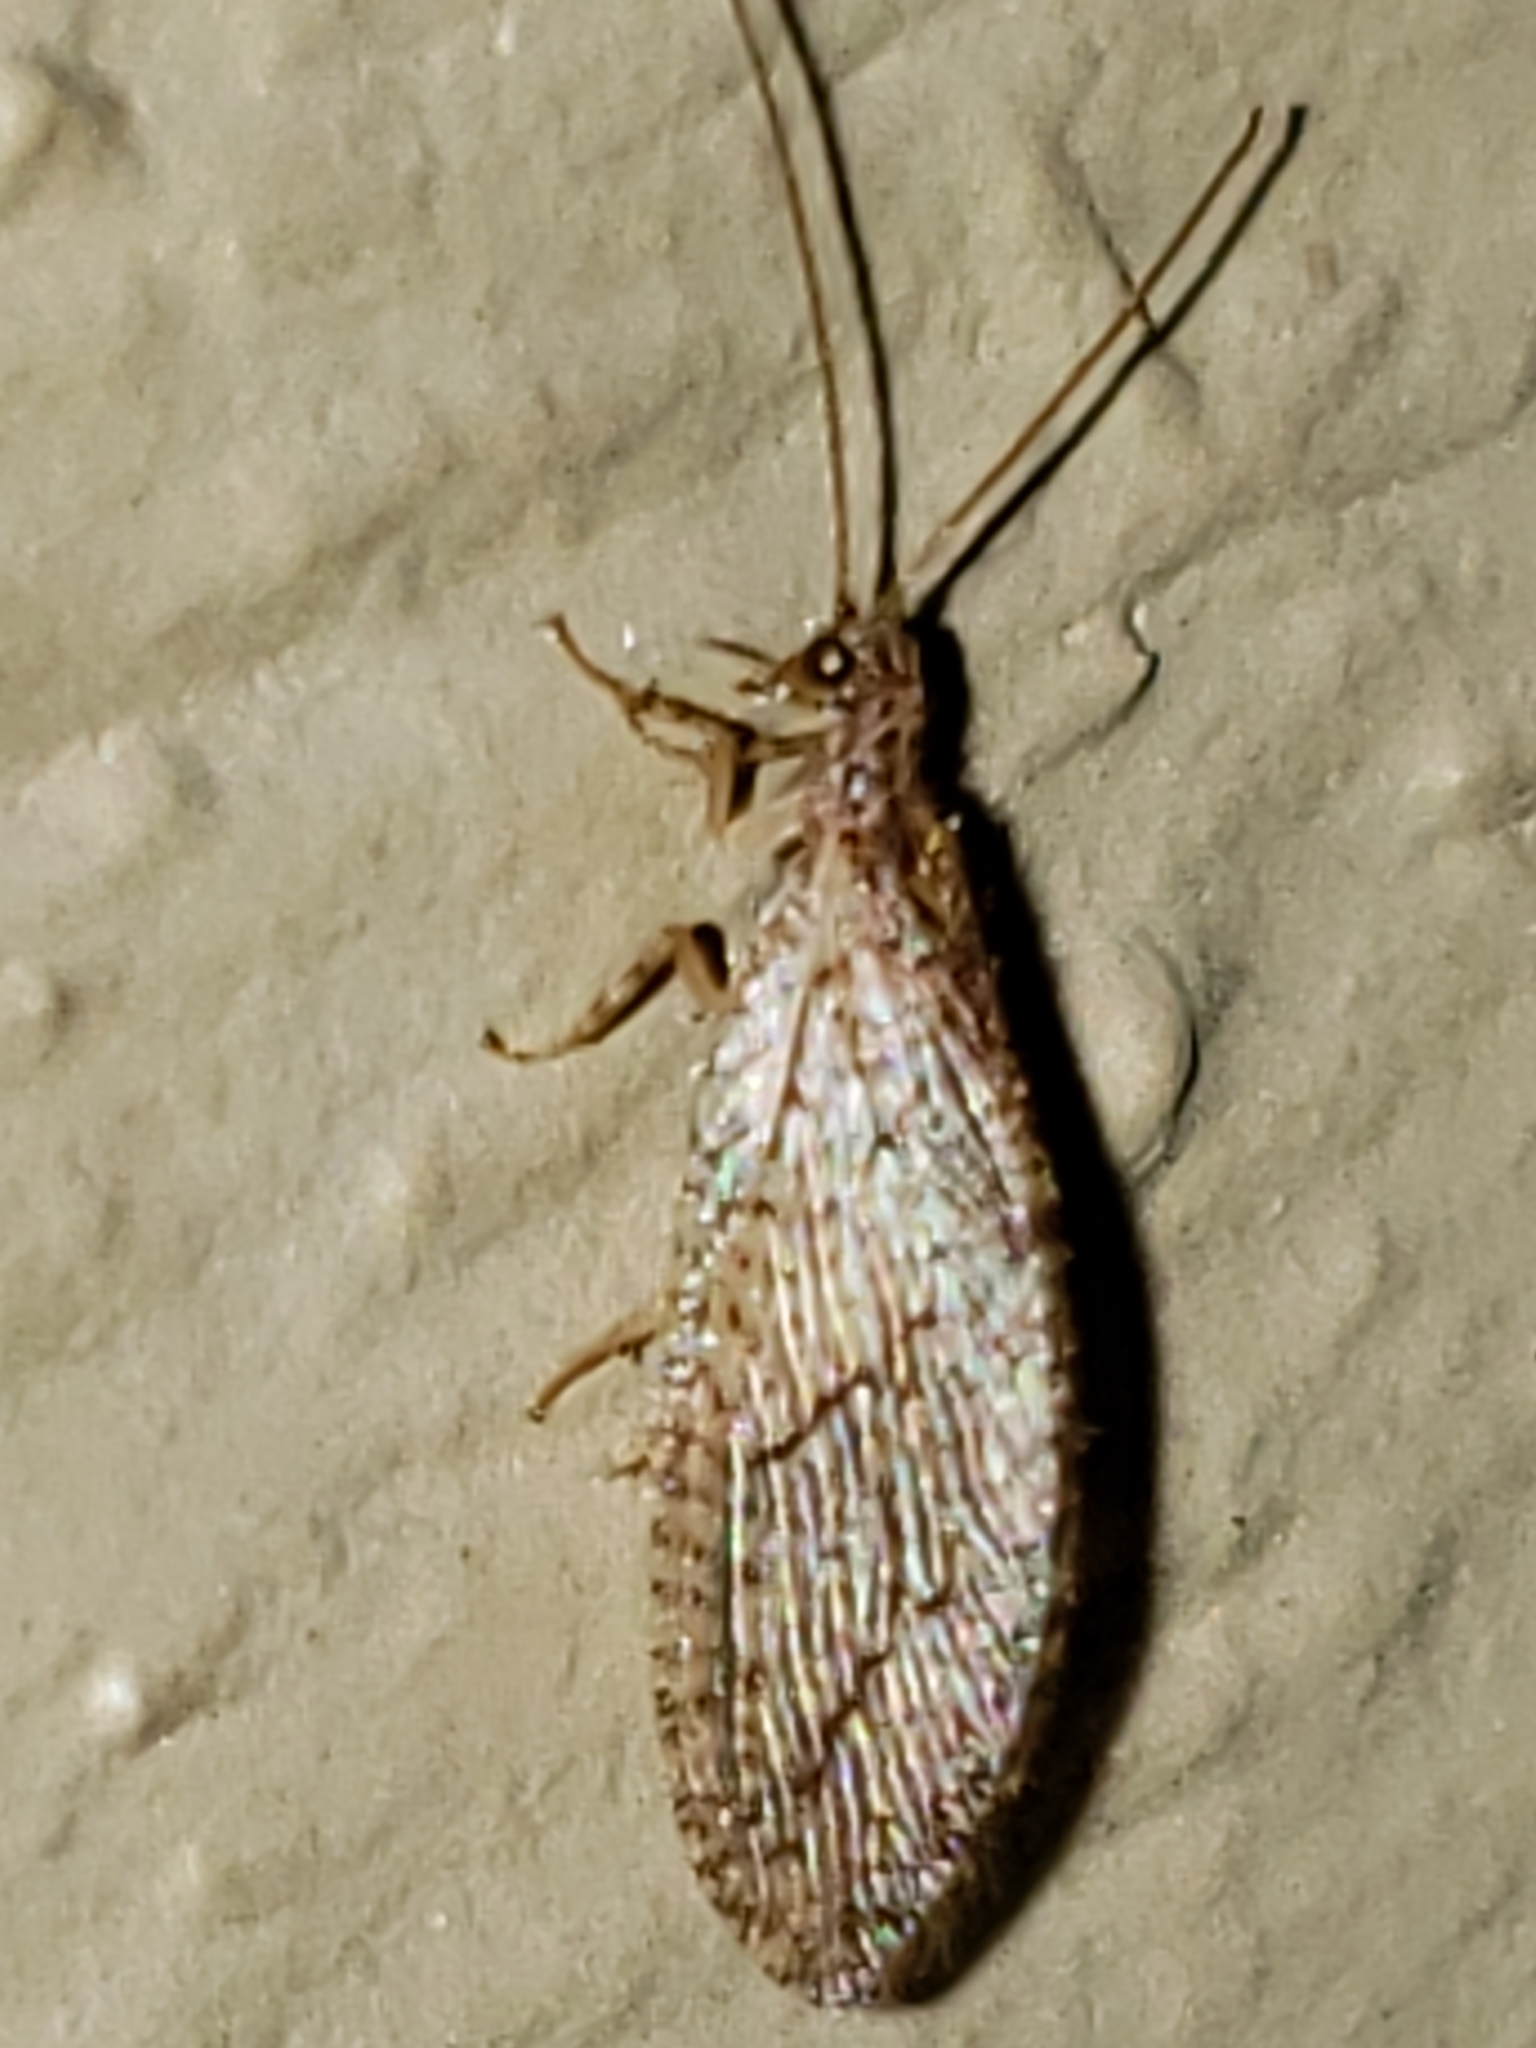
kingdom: Animalia
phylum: Arthropoda
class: Insecta
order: Neuroptera
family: Hemerobiidae
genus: Micromus
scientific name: Micromus posticus
